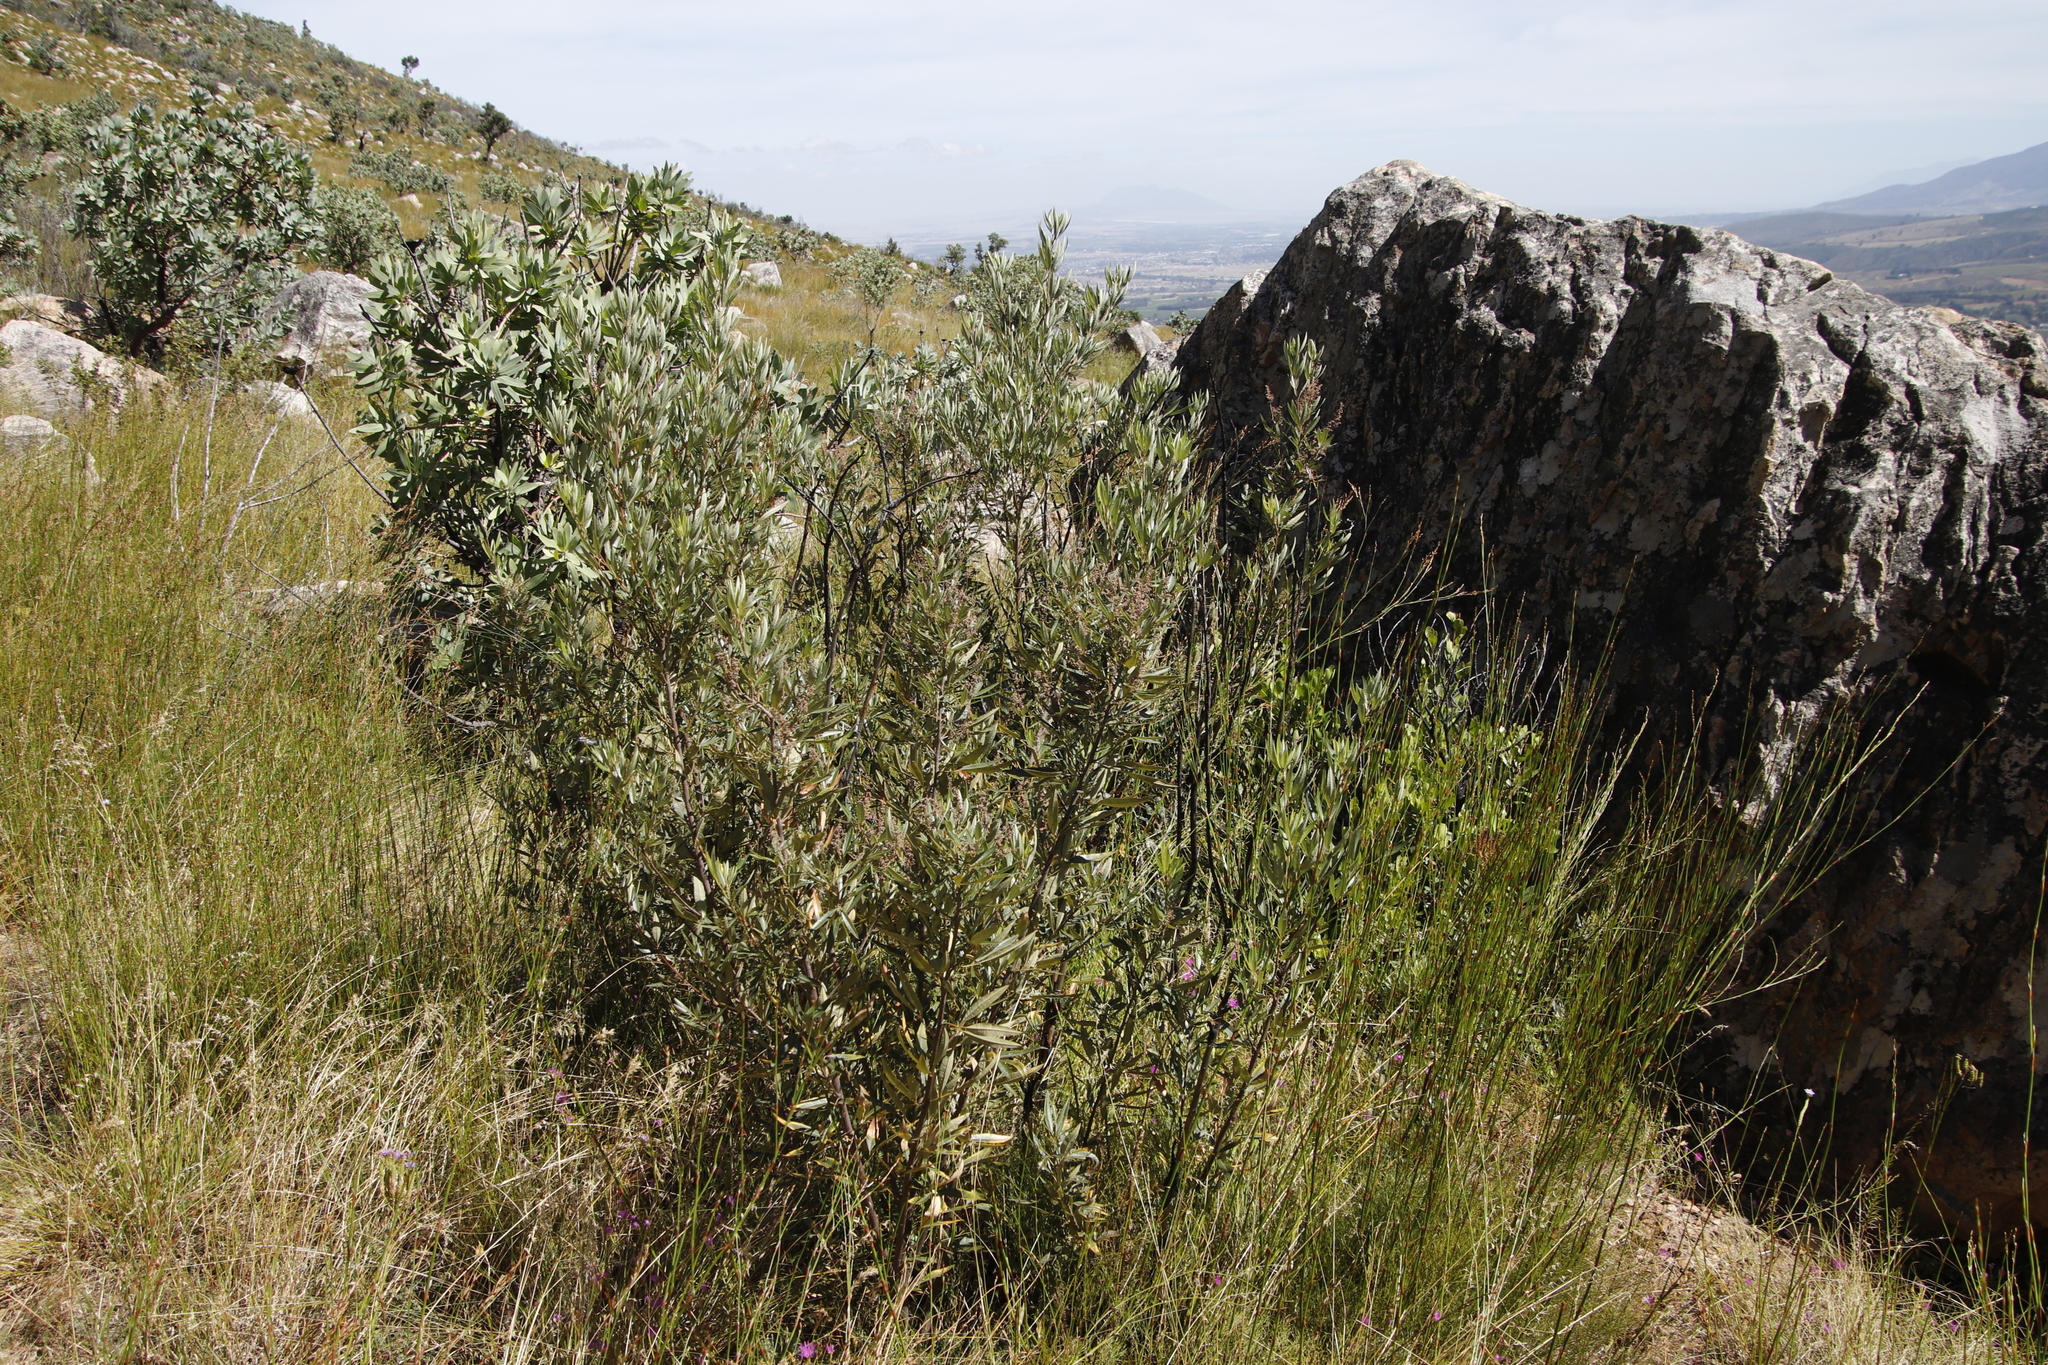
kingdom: Plantae
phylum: Tracheophyta
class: Magnoliopsida
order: Sapindales
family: Anacardiaceae
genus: Searsia
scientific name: Searsia angustifolia
